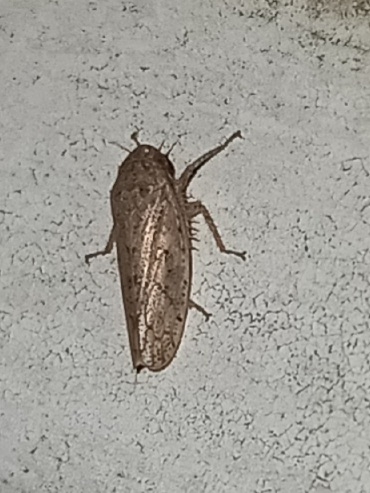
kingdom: Animalia
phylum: Arthropoda
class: Insecta
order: Hemiptera
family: Cicadellidae
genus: Curtara
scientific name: Curtara insularis
